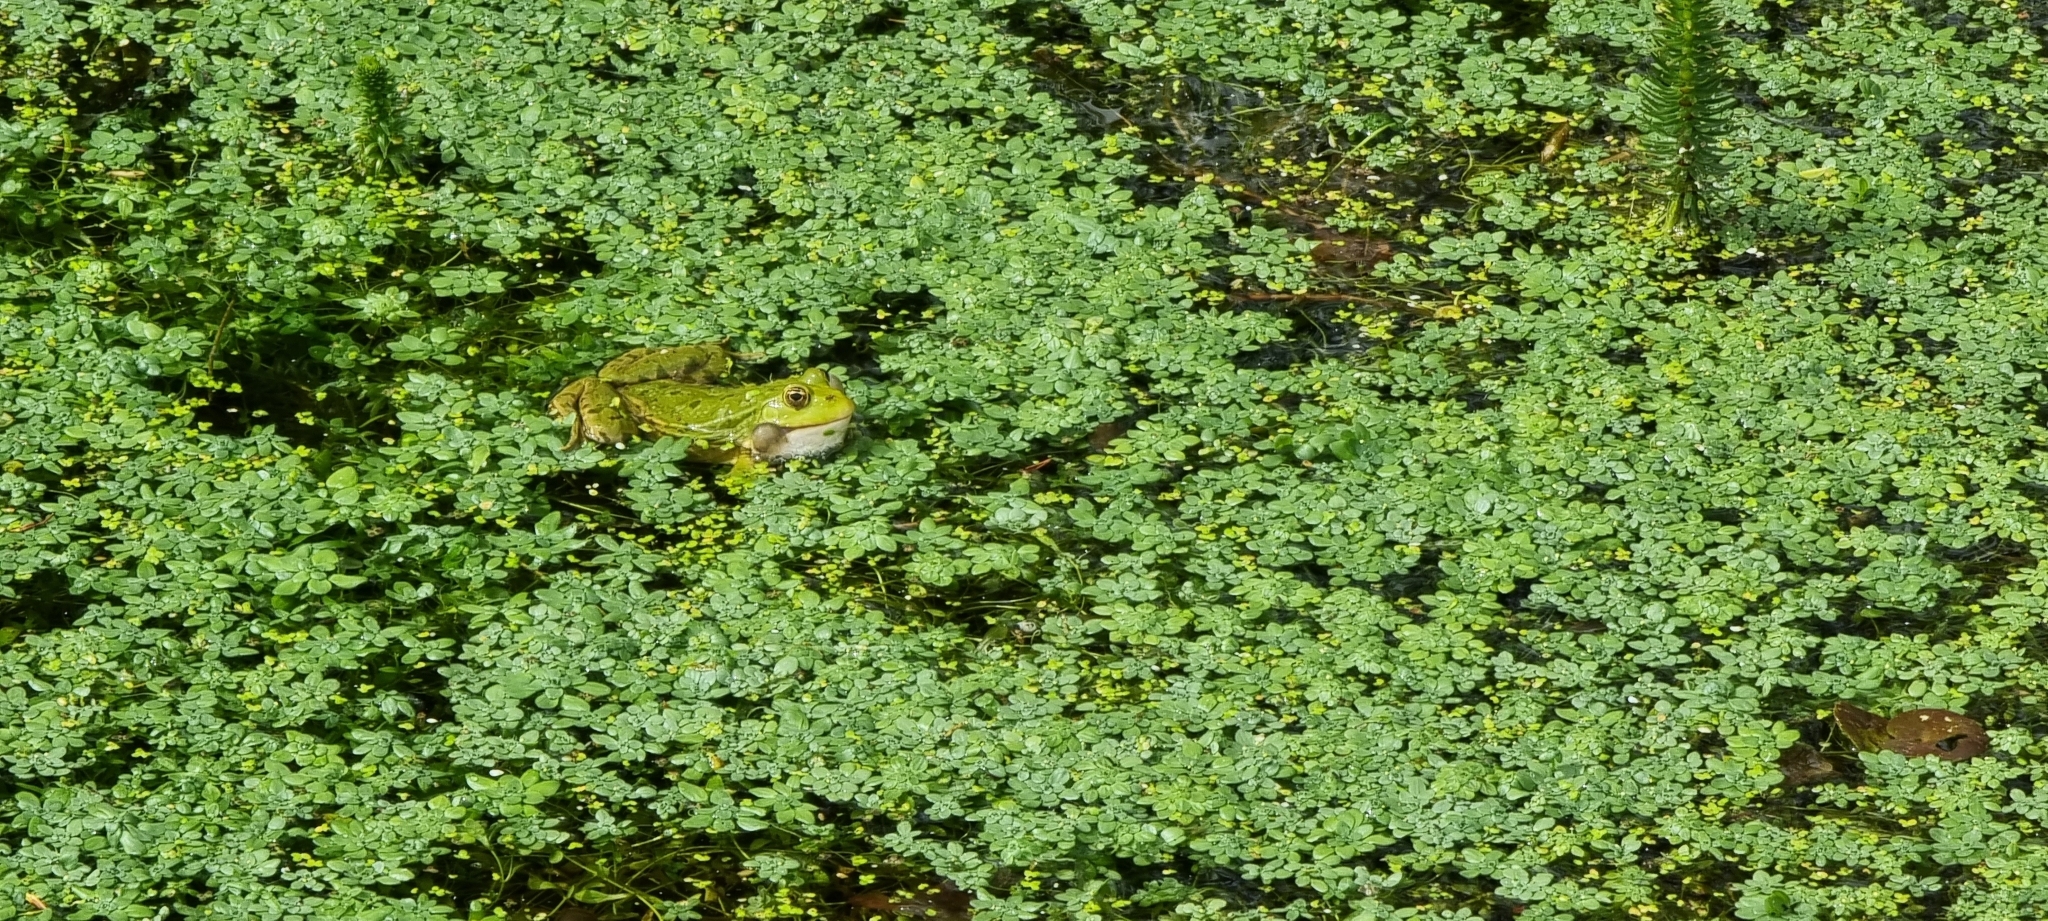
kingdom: Animalia
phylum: Chordata
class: Amphibia
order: Anura
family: Ranidae
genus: Pelophylax
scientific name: Pelophylax lessonae
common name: Pool frog
